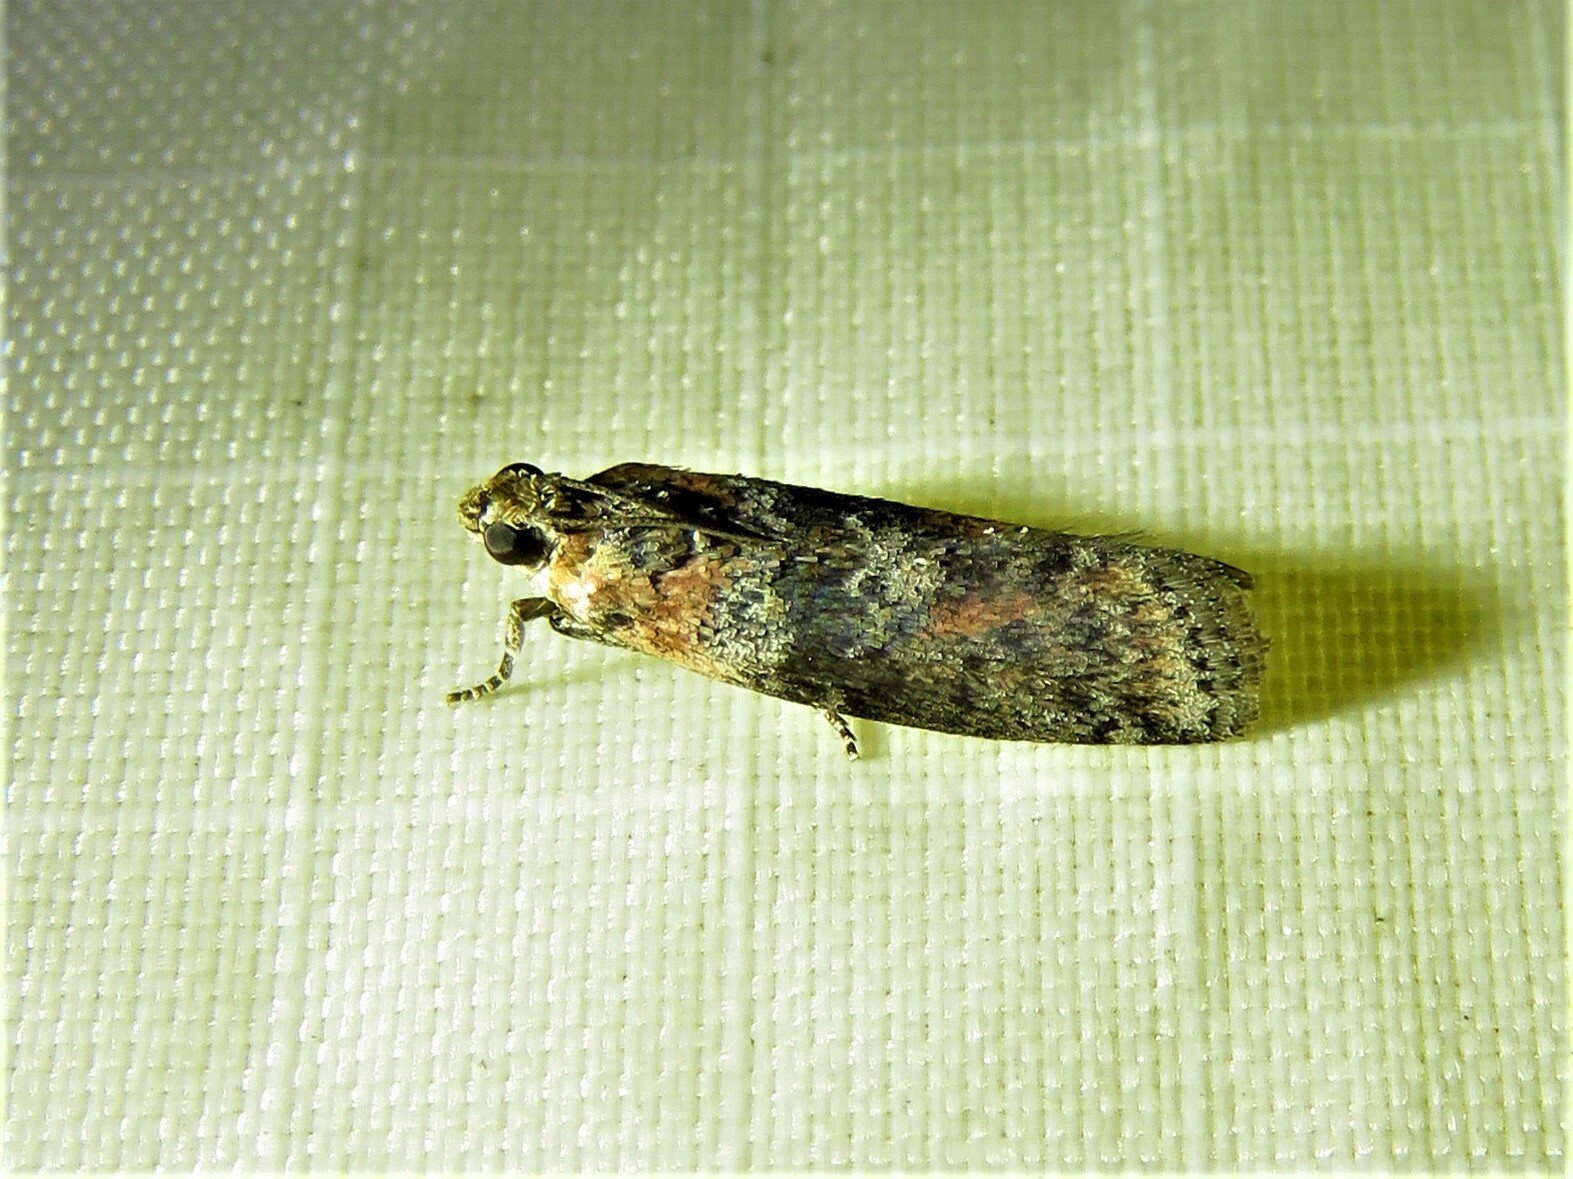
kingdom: Animalia
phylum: Arthropoda
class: Insecta
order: Lepidoptera
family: Pyralidae
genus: Sciota
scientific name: Sciota celtidella
